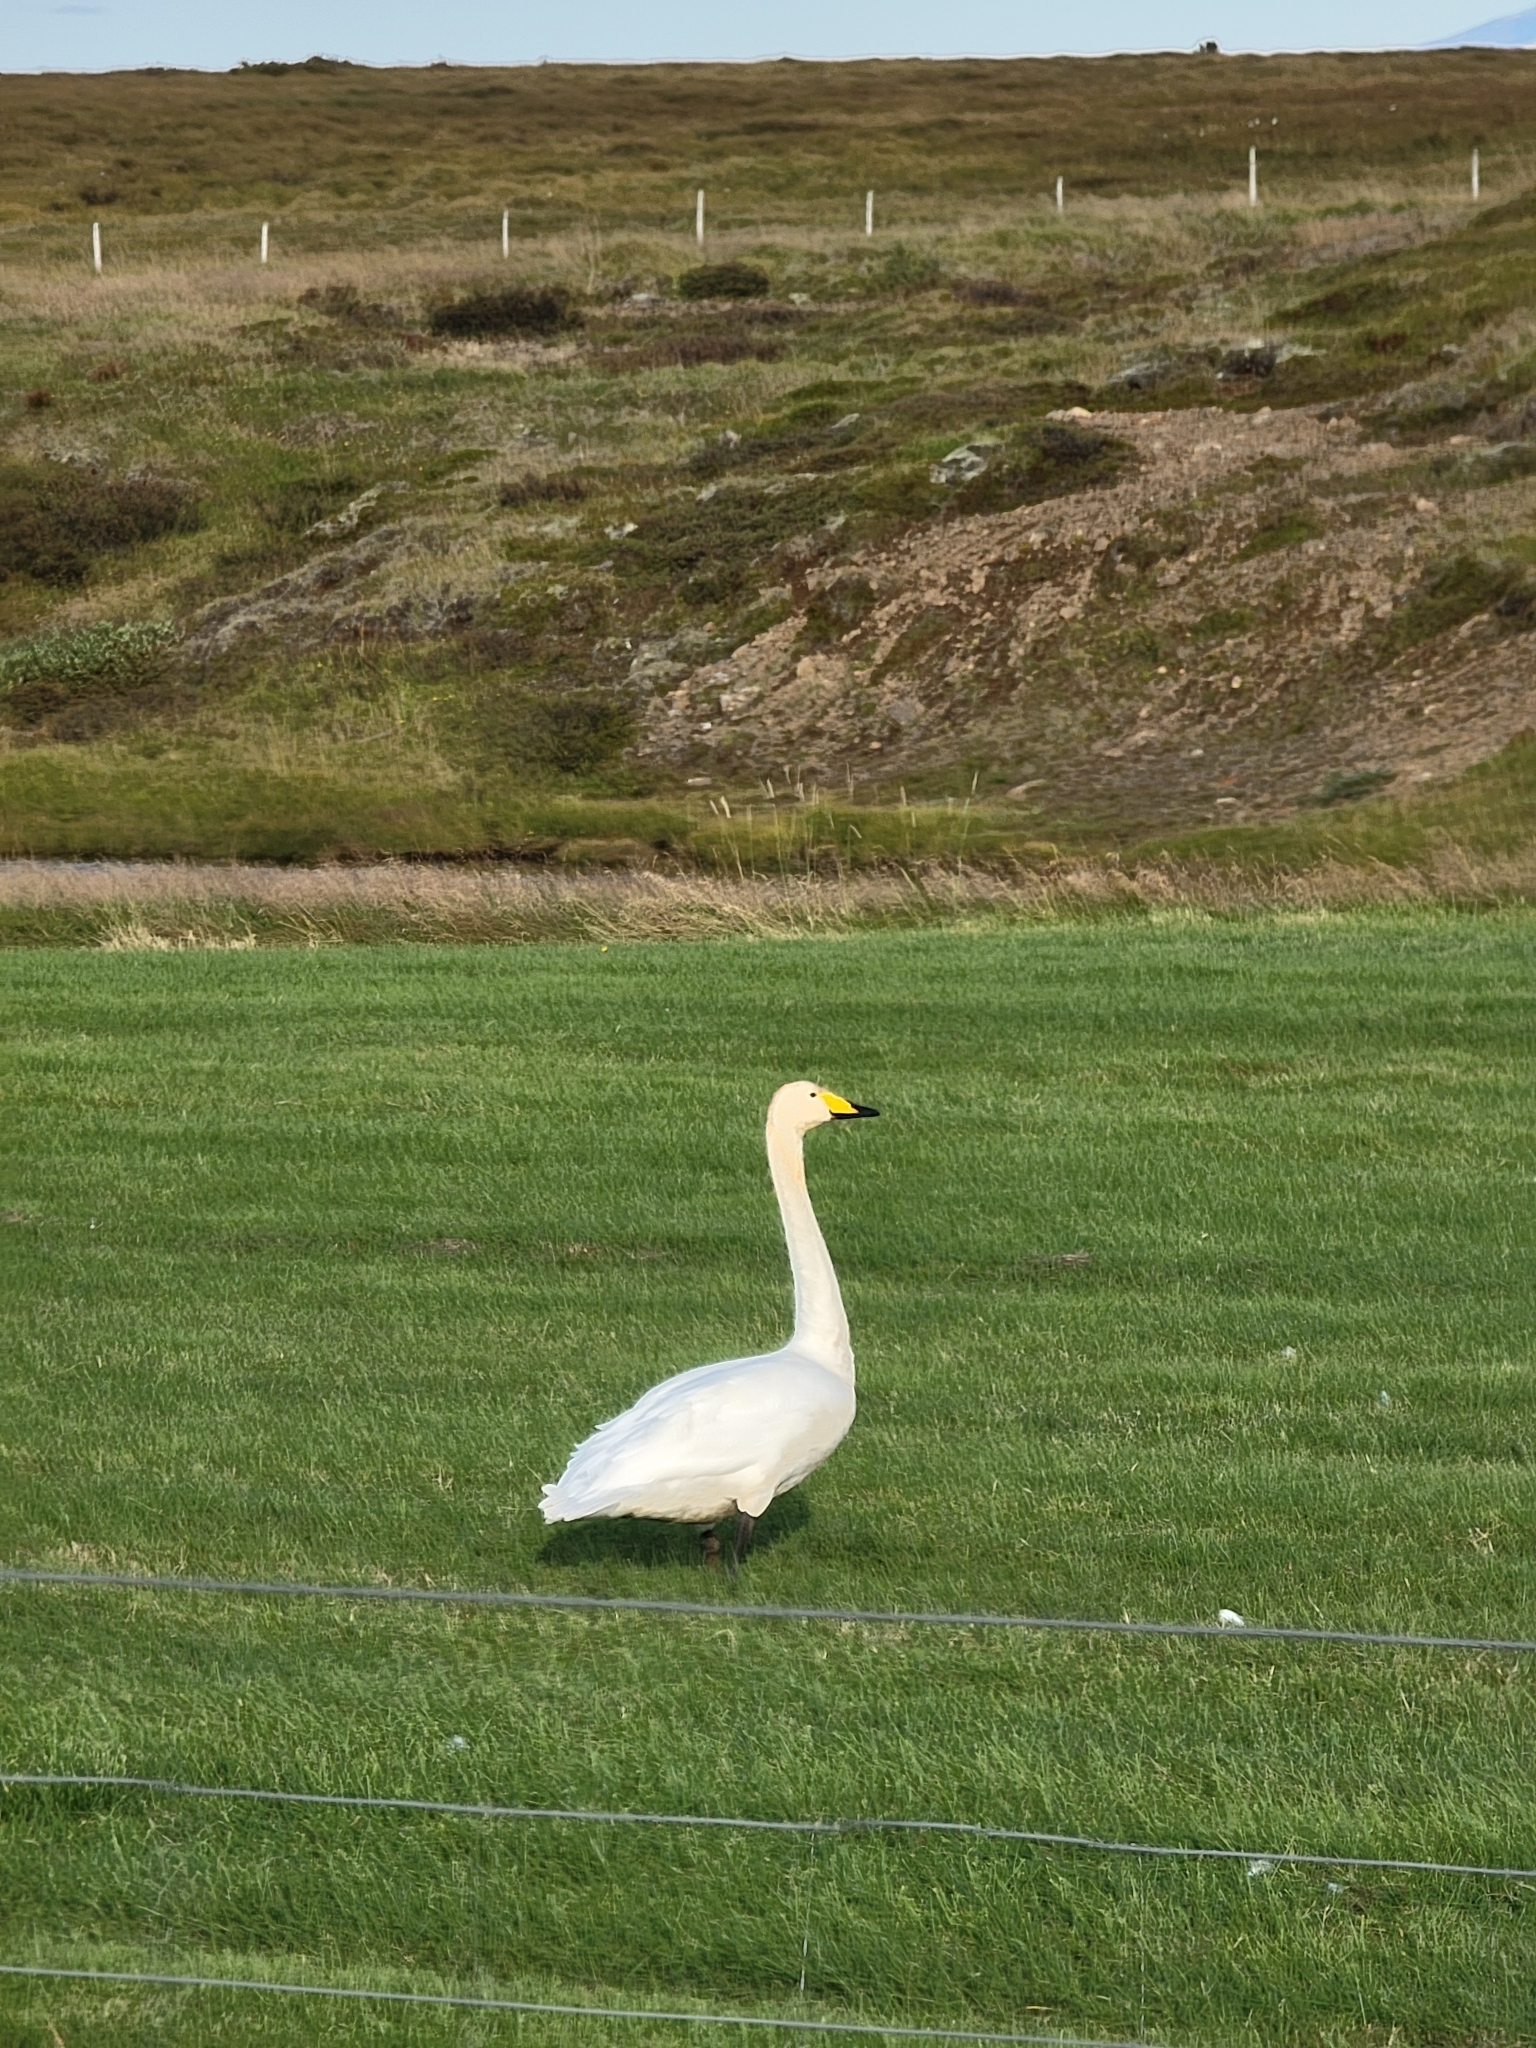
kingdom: Animalia
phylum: Chordata
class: Aves
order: Anseriformes
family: Anatidae
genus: Cygnus
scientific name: Cygnus cygnus
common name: Whooper swan
